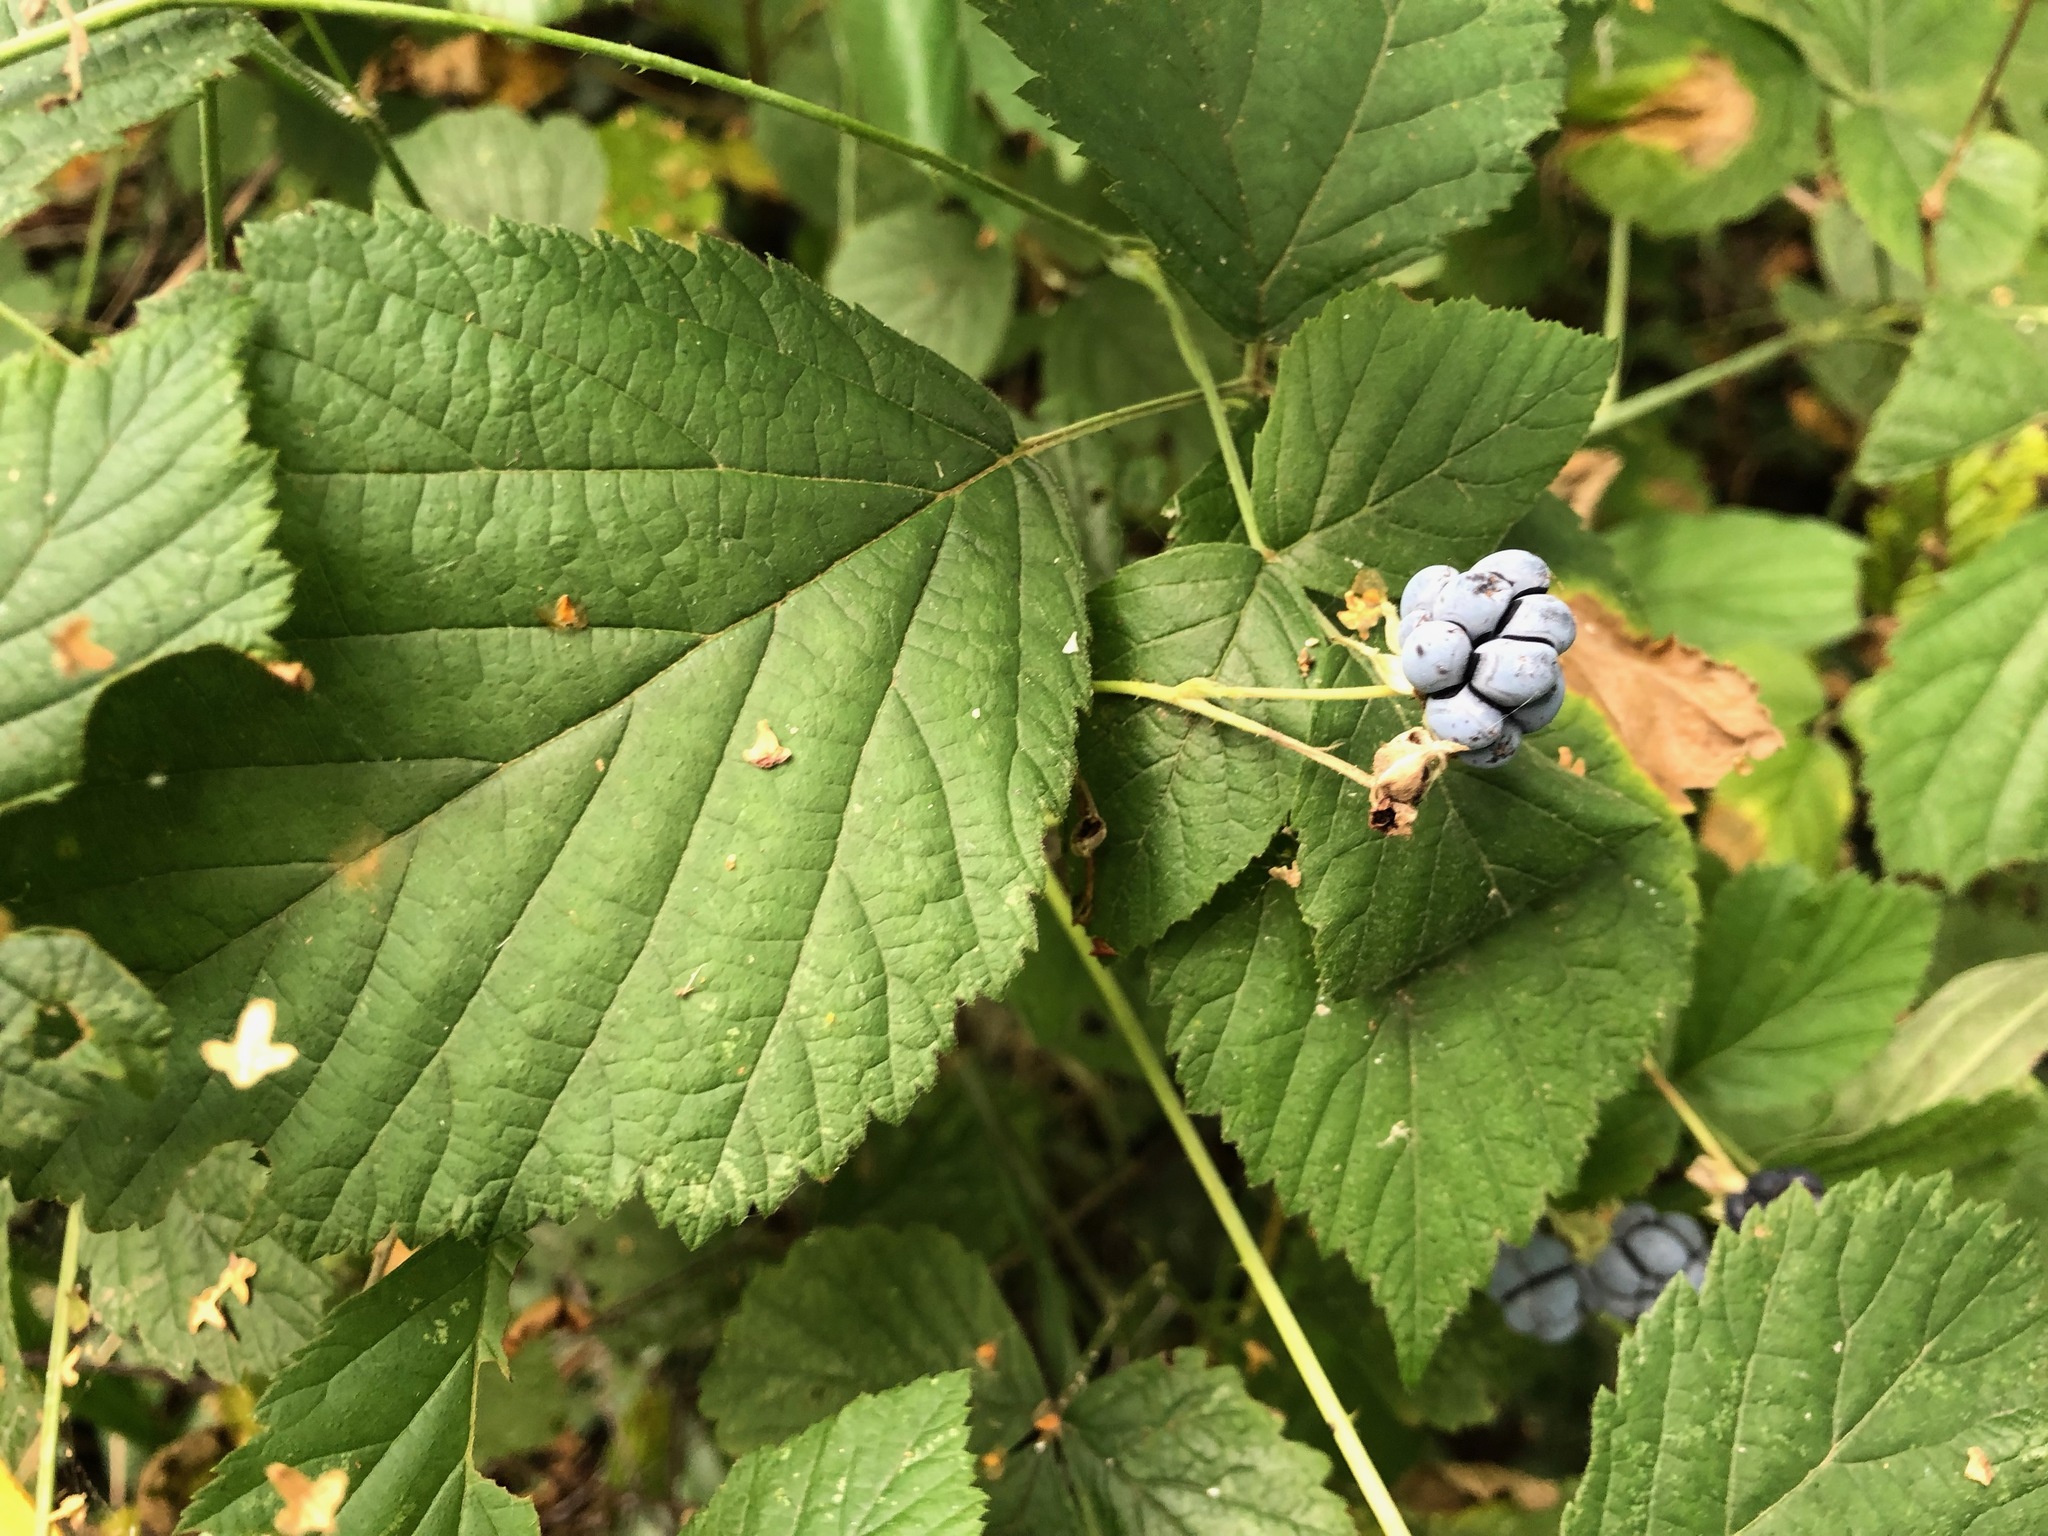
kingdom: Plantae
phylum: Tracheophyta
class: Magnoliopsida
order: Rosales
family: Rosaceae
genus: Rubus
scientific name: Rubus caesius
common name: Dewberry
